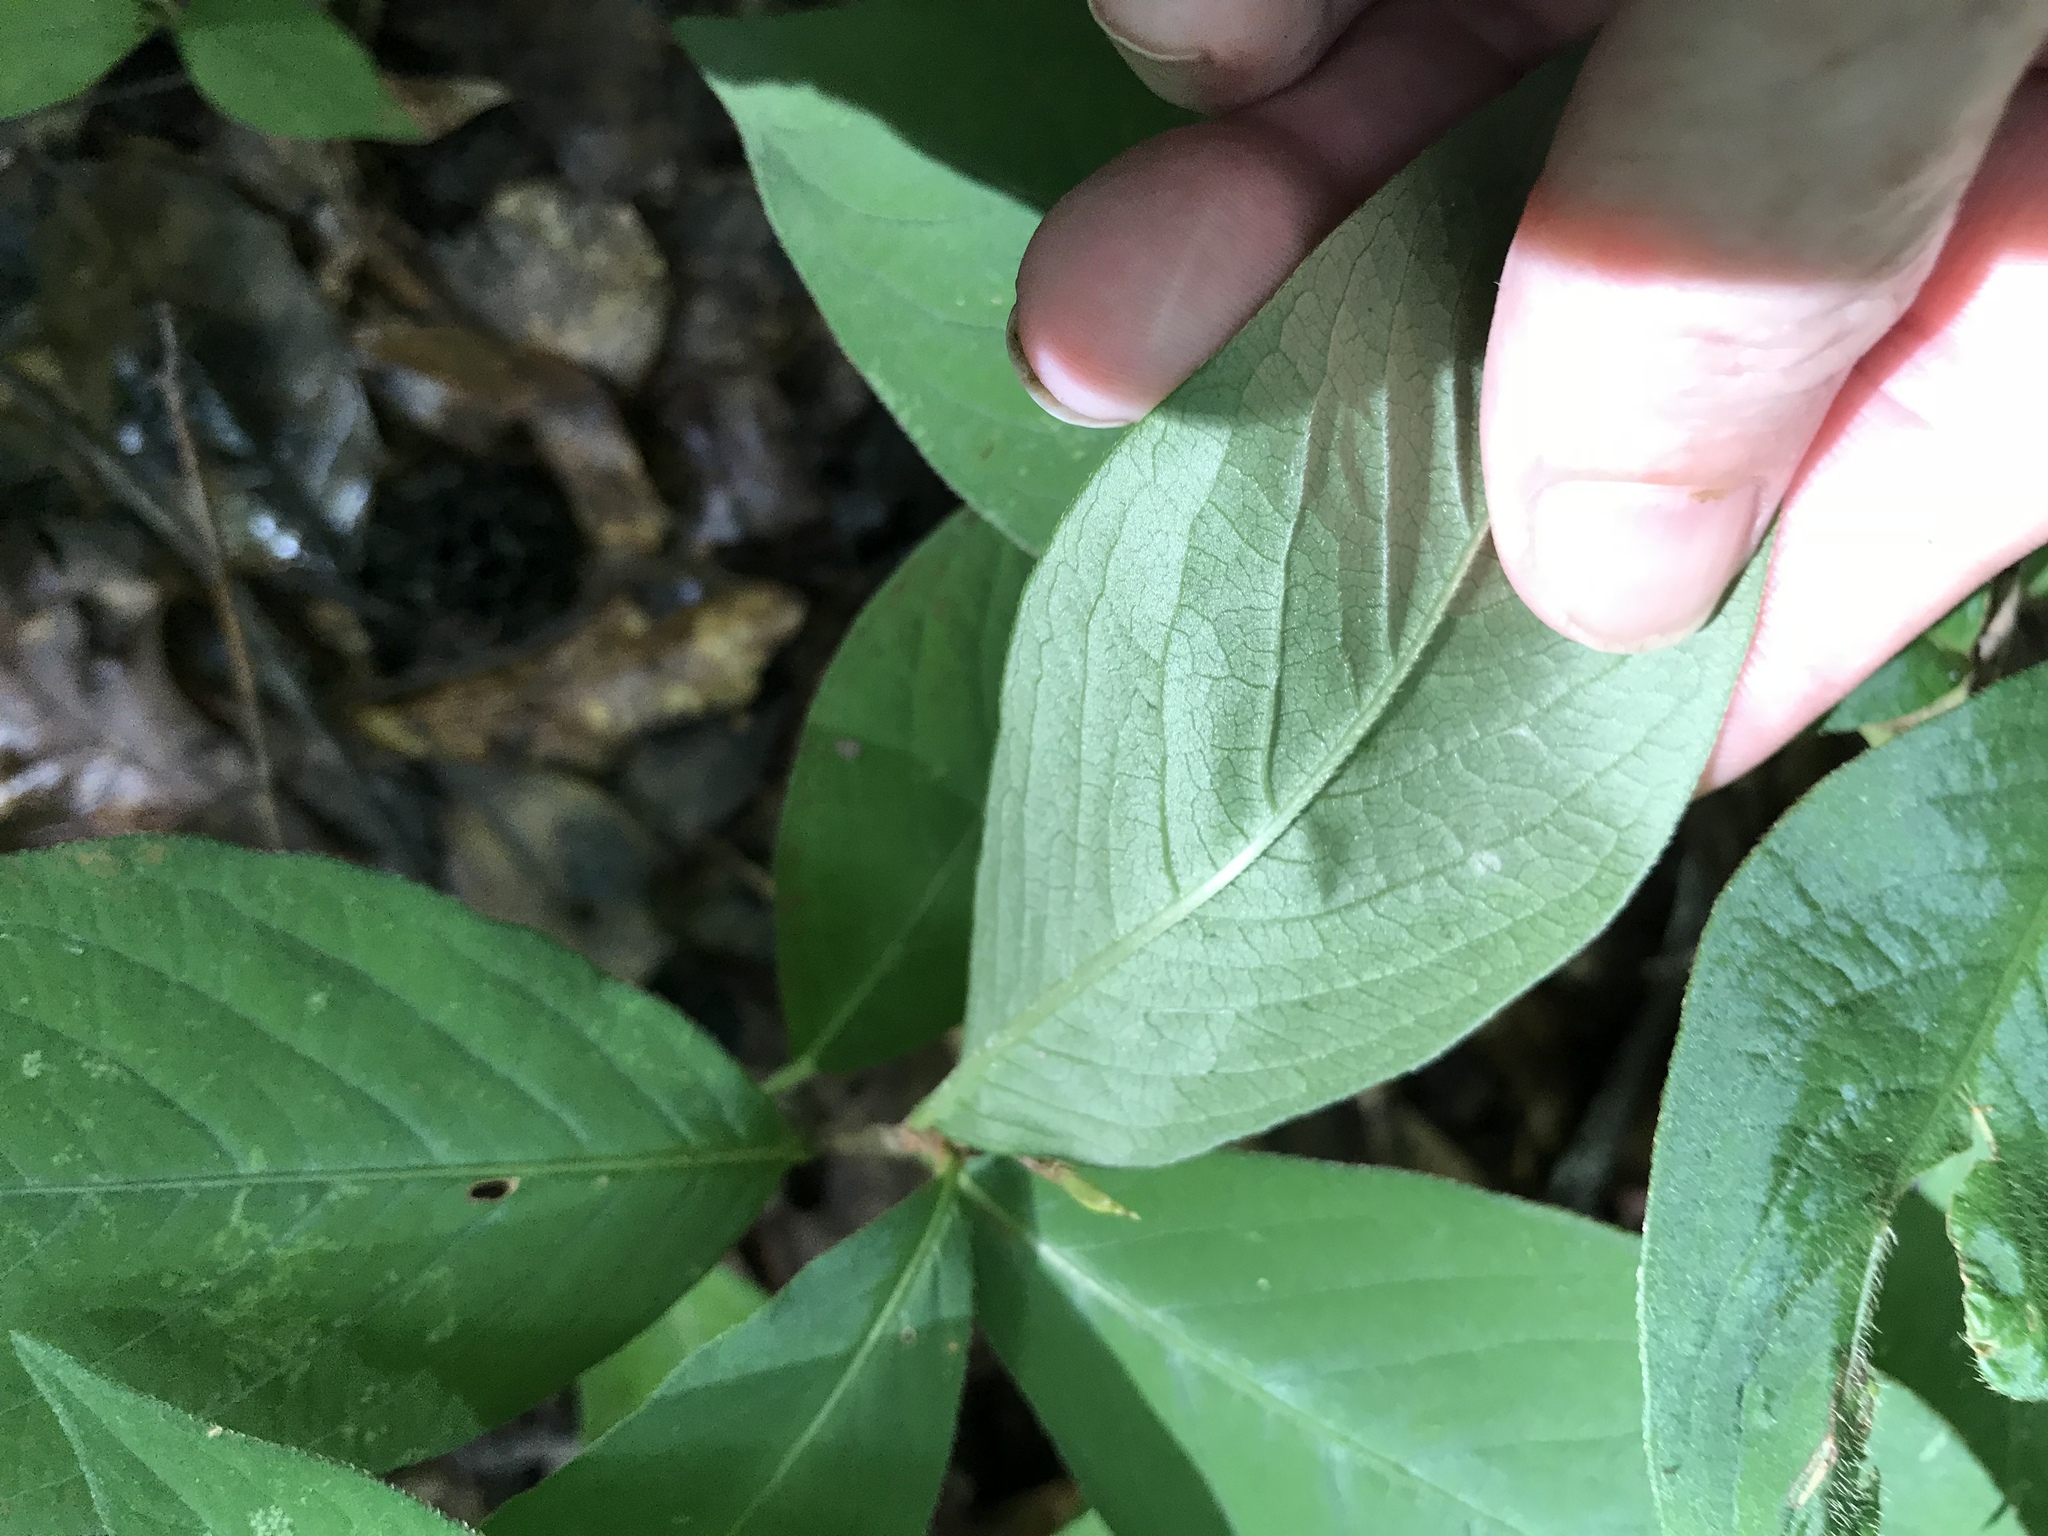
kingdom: Plantae
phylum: Tracheophyta
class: Magnoliopsida
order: Caryophyllales
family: Polygonaceae
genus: Persicaria
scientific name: Persicaria virginiana
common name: Jumpseed
